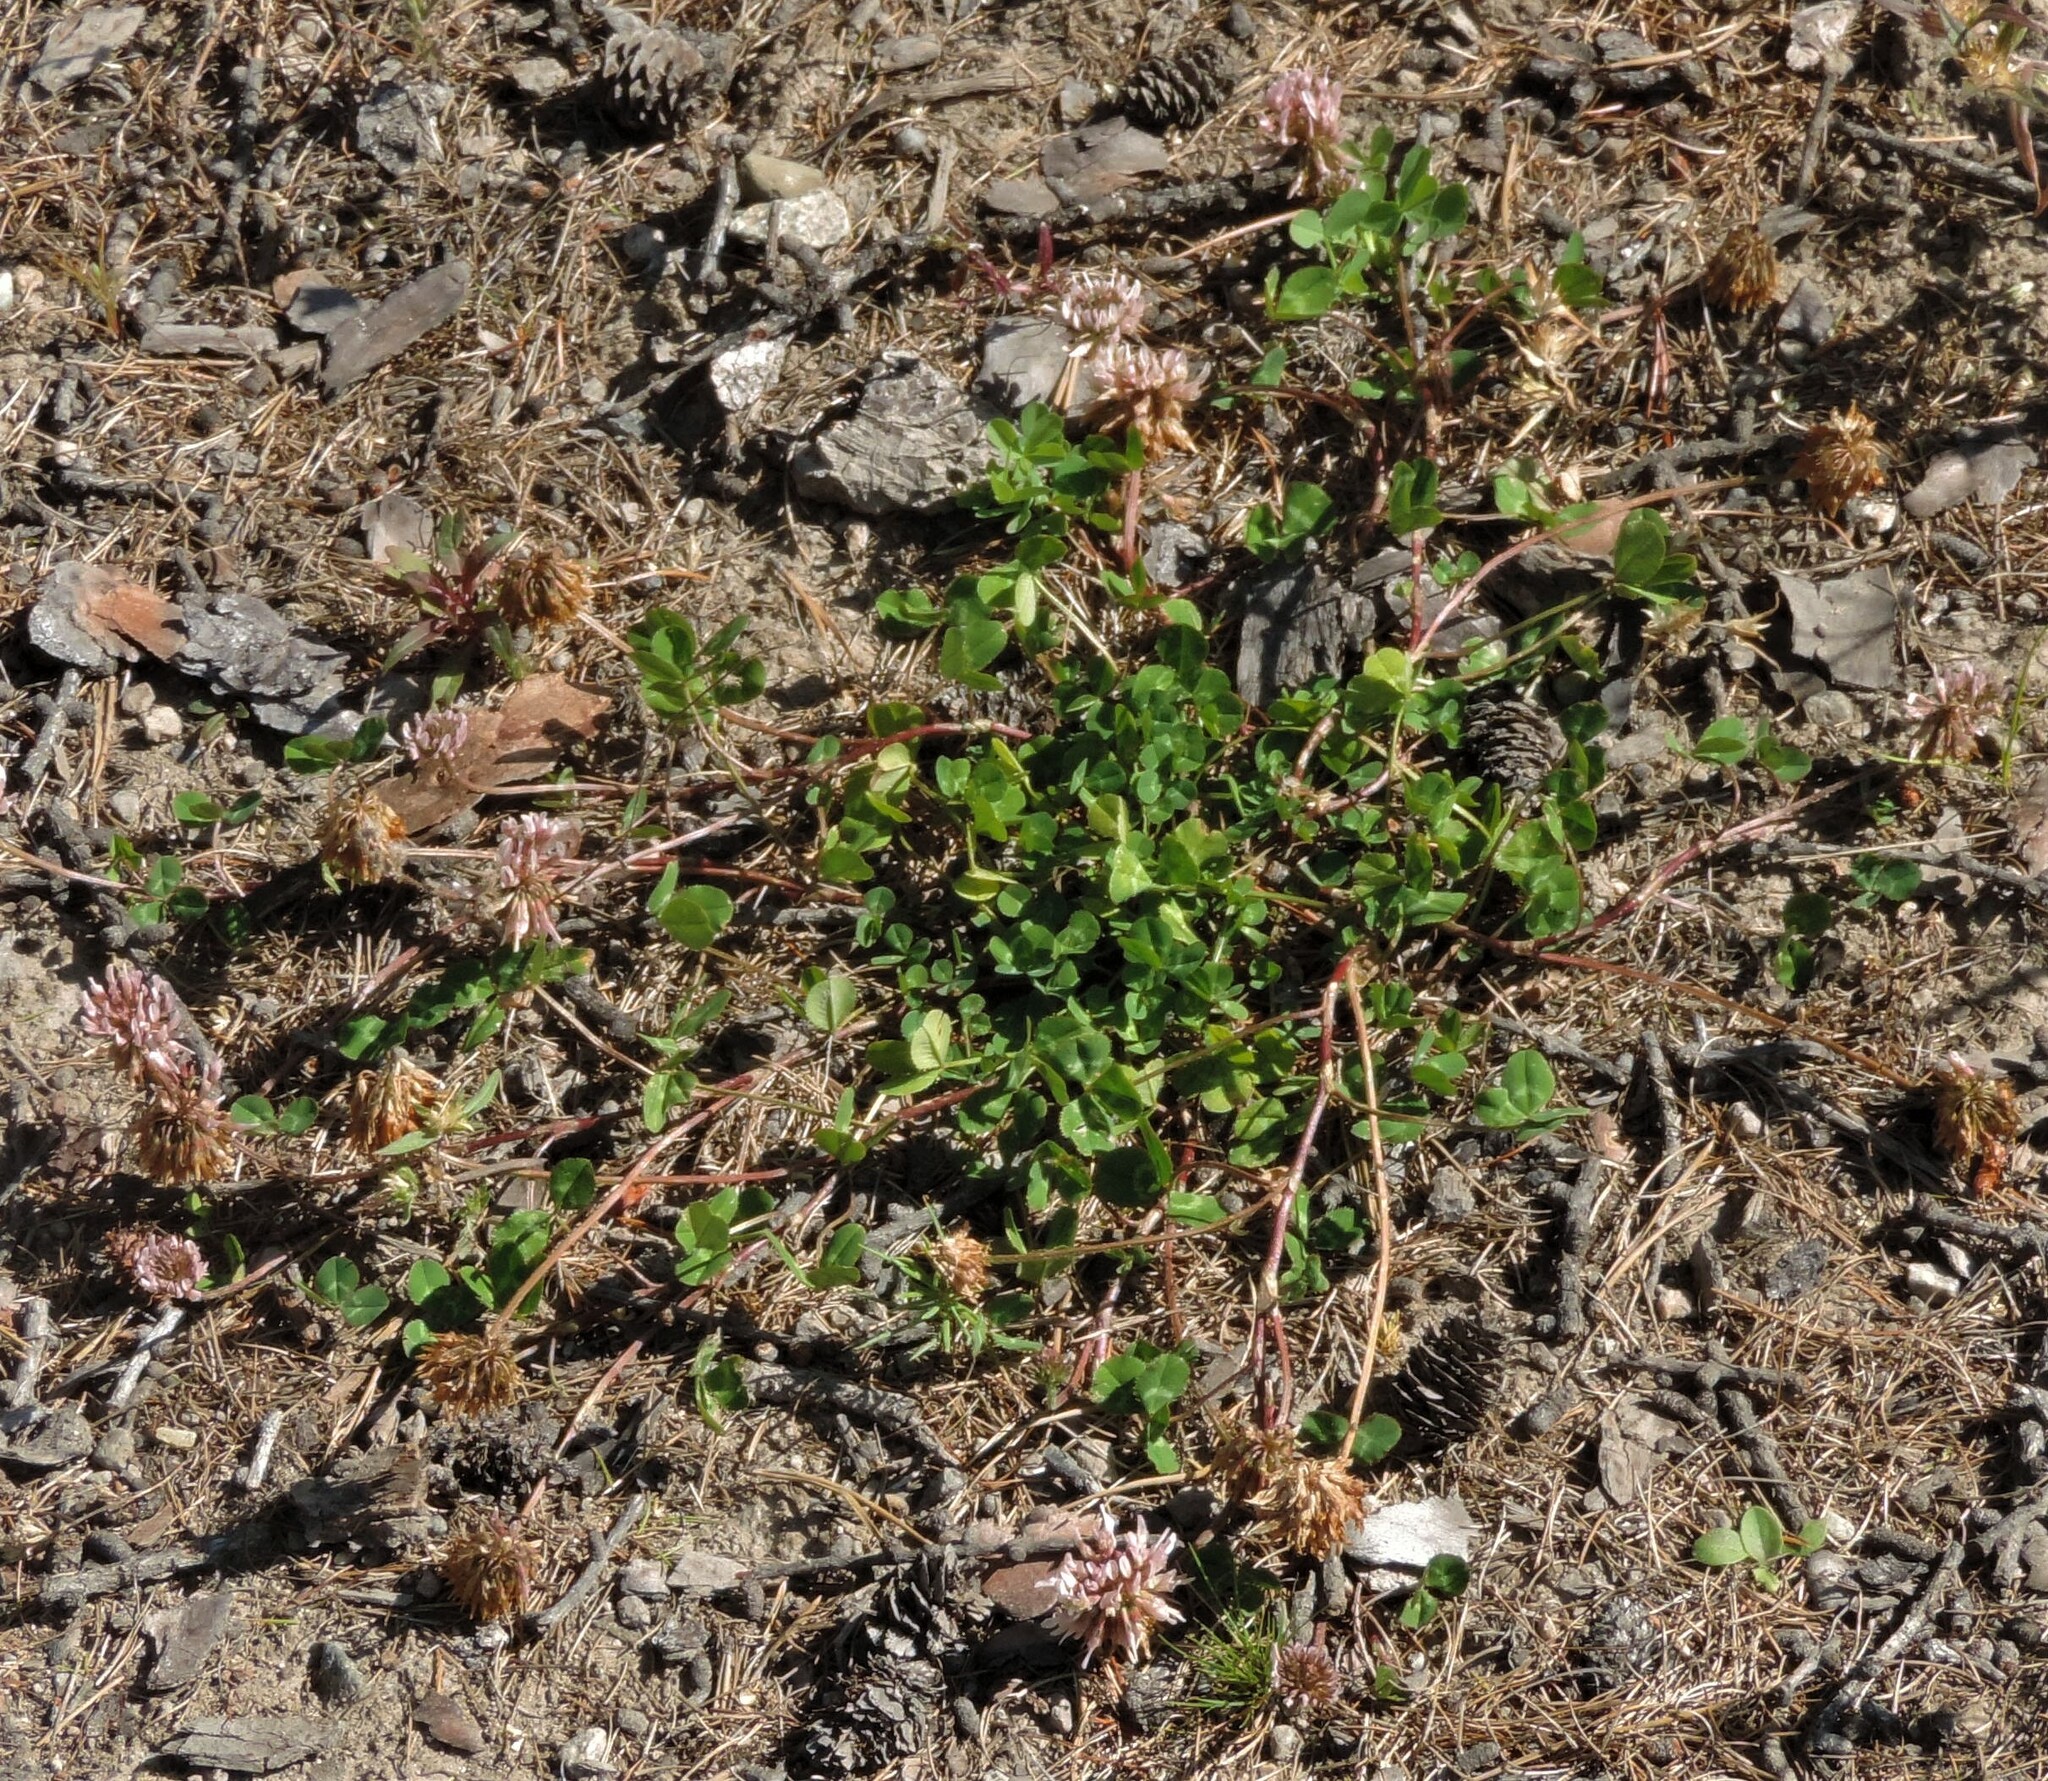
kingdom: Plantae
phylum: Tracheophyta
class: Magnoliopsida
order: Fabales
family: Fabaceae
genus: Trifolium
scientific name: Trifolium repens
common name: White clover
